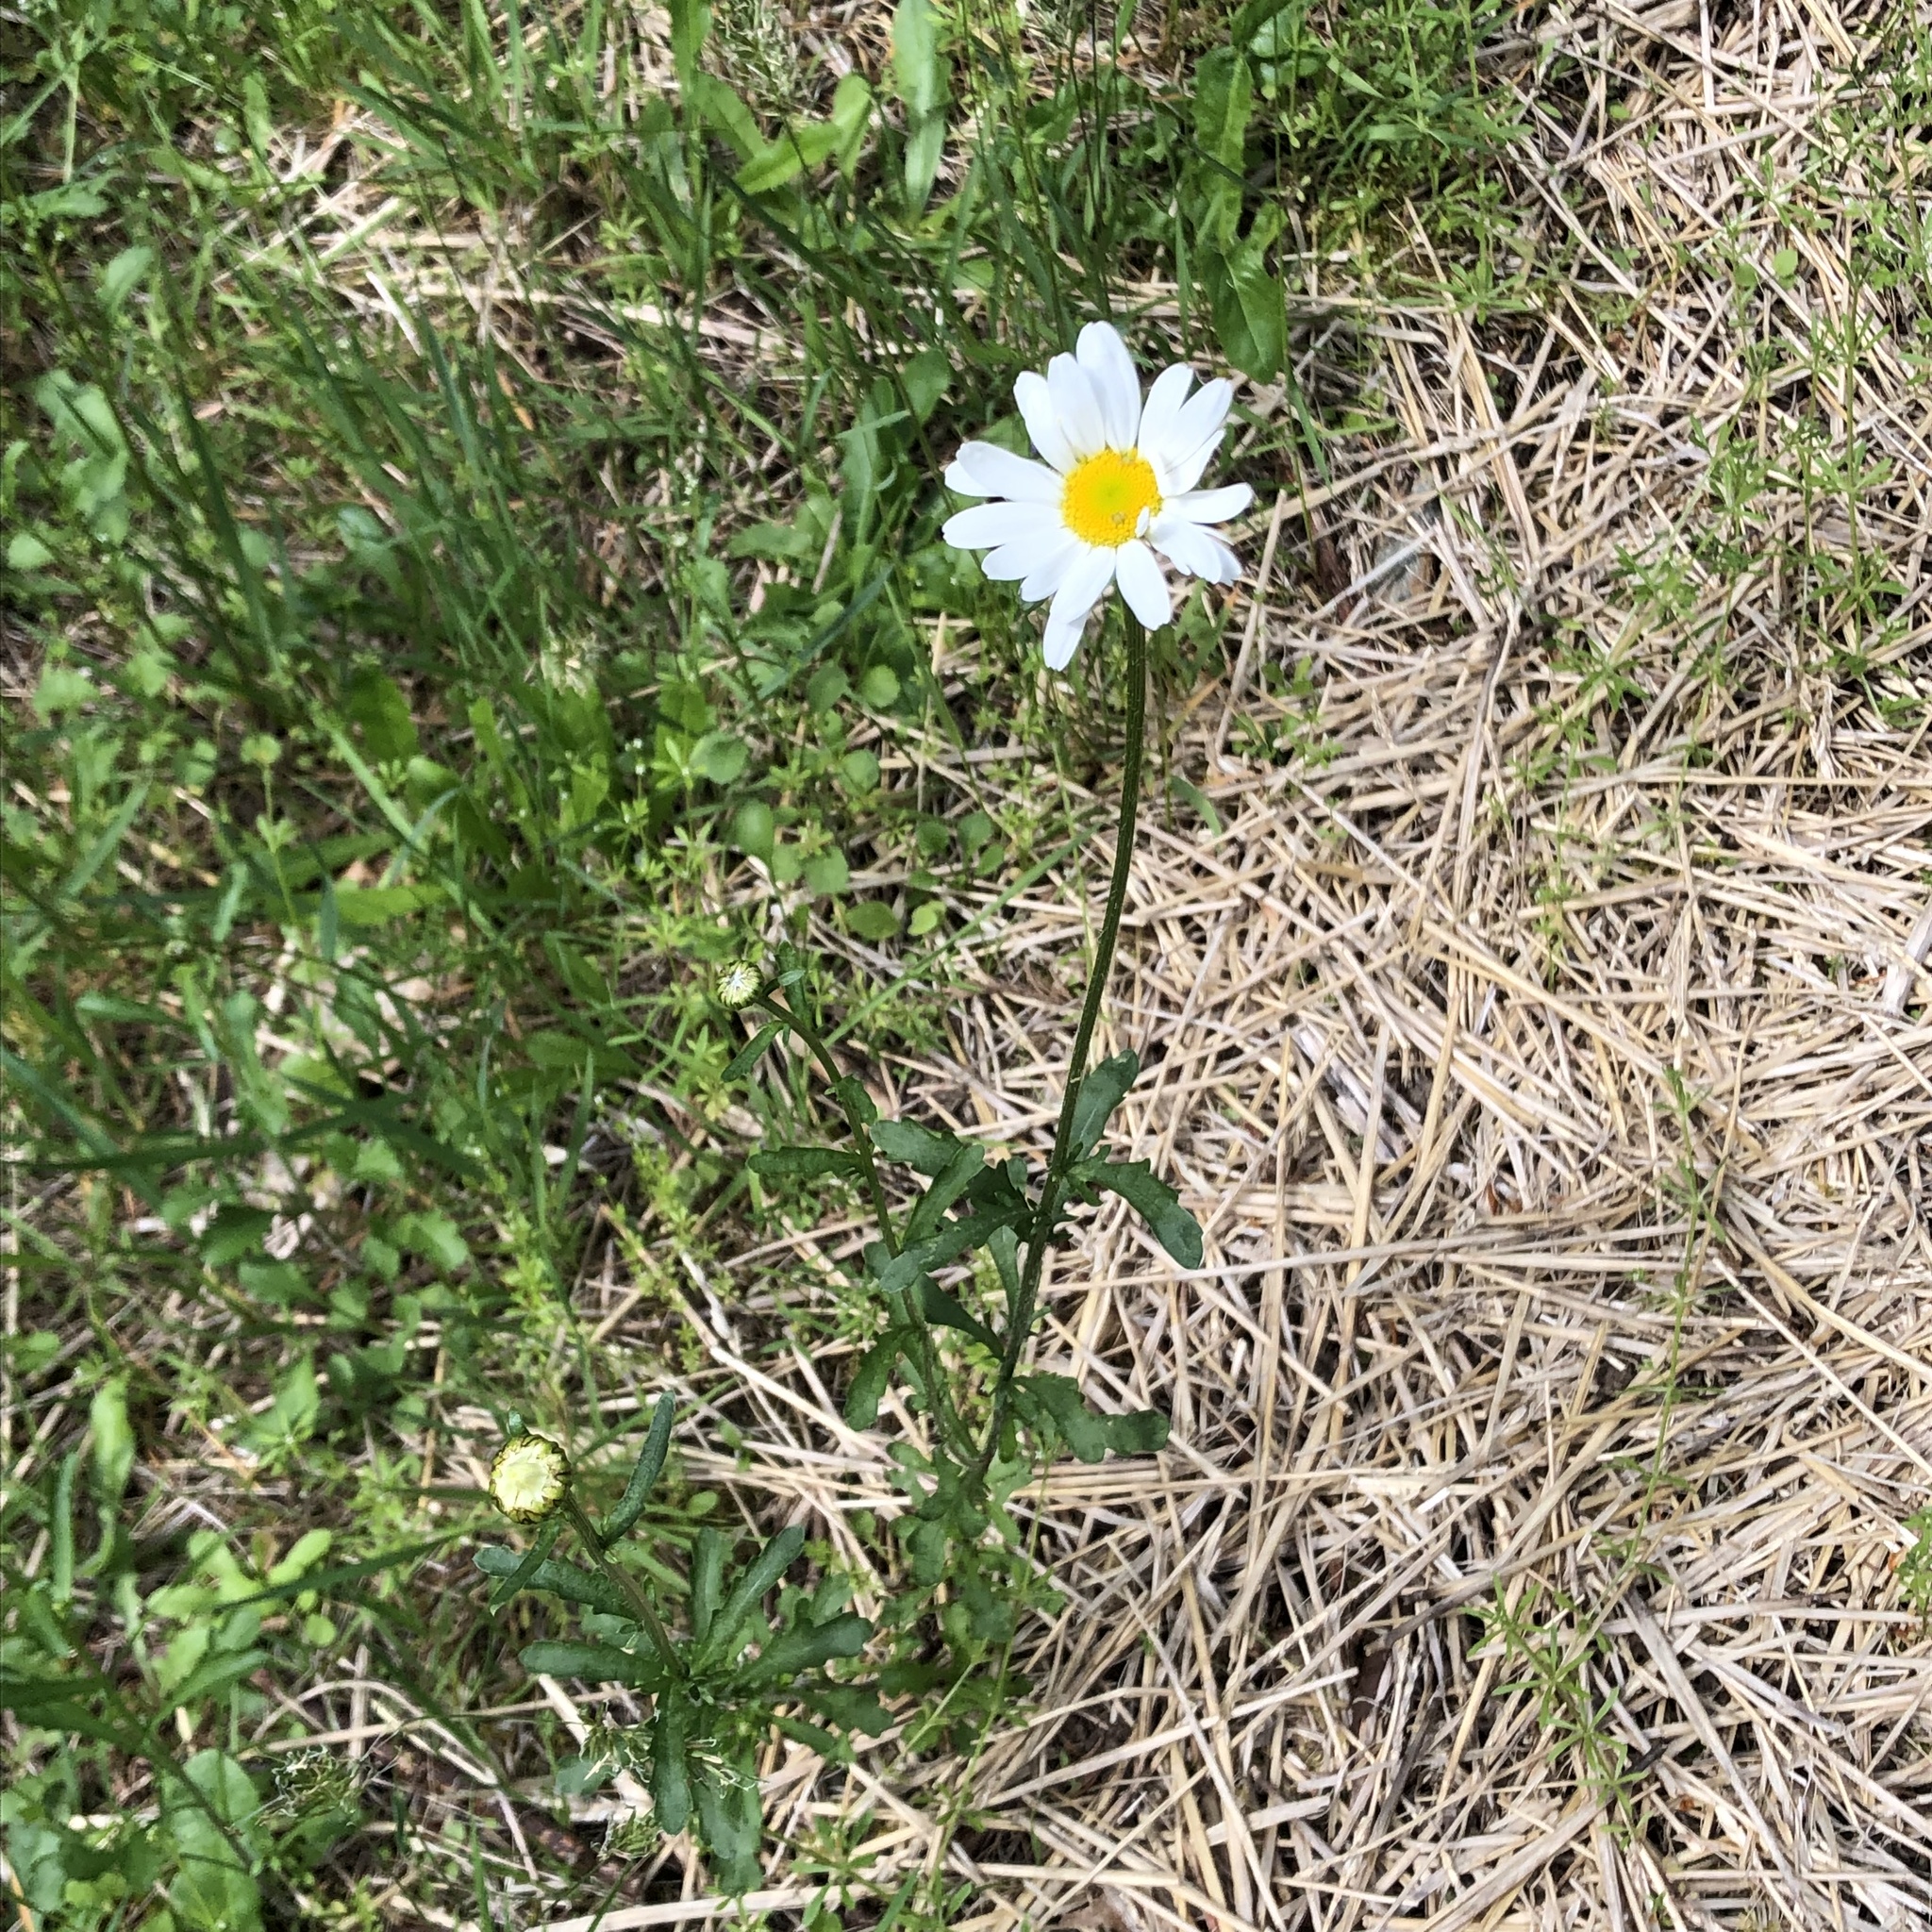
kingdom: Plantae
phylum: Tracheophyta
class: Magnoliopsida
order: Asterales
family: Asteraceae
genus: Leucanthemum
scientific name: Leucanthemum vulgare
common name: Oxeye daisy
